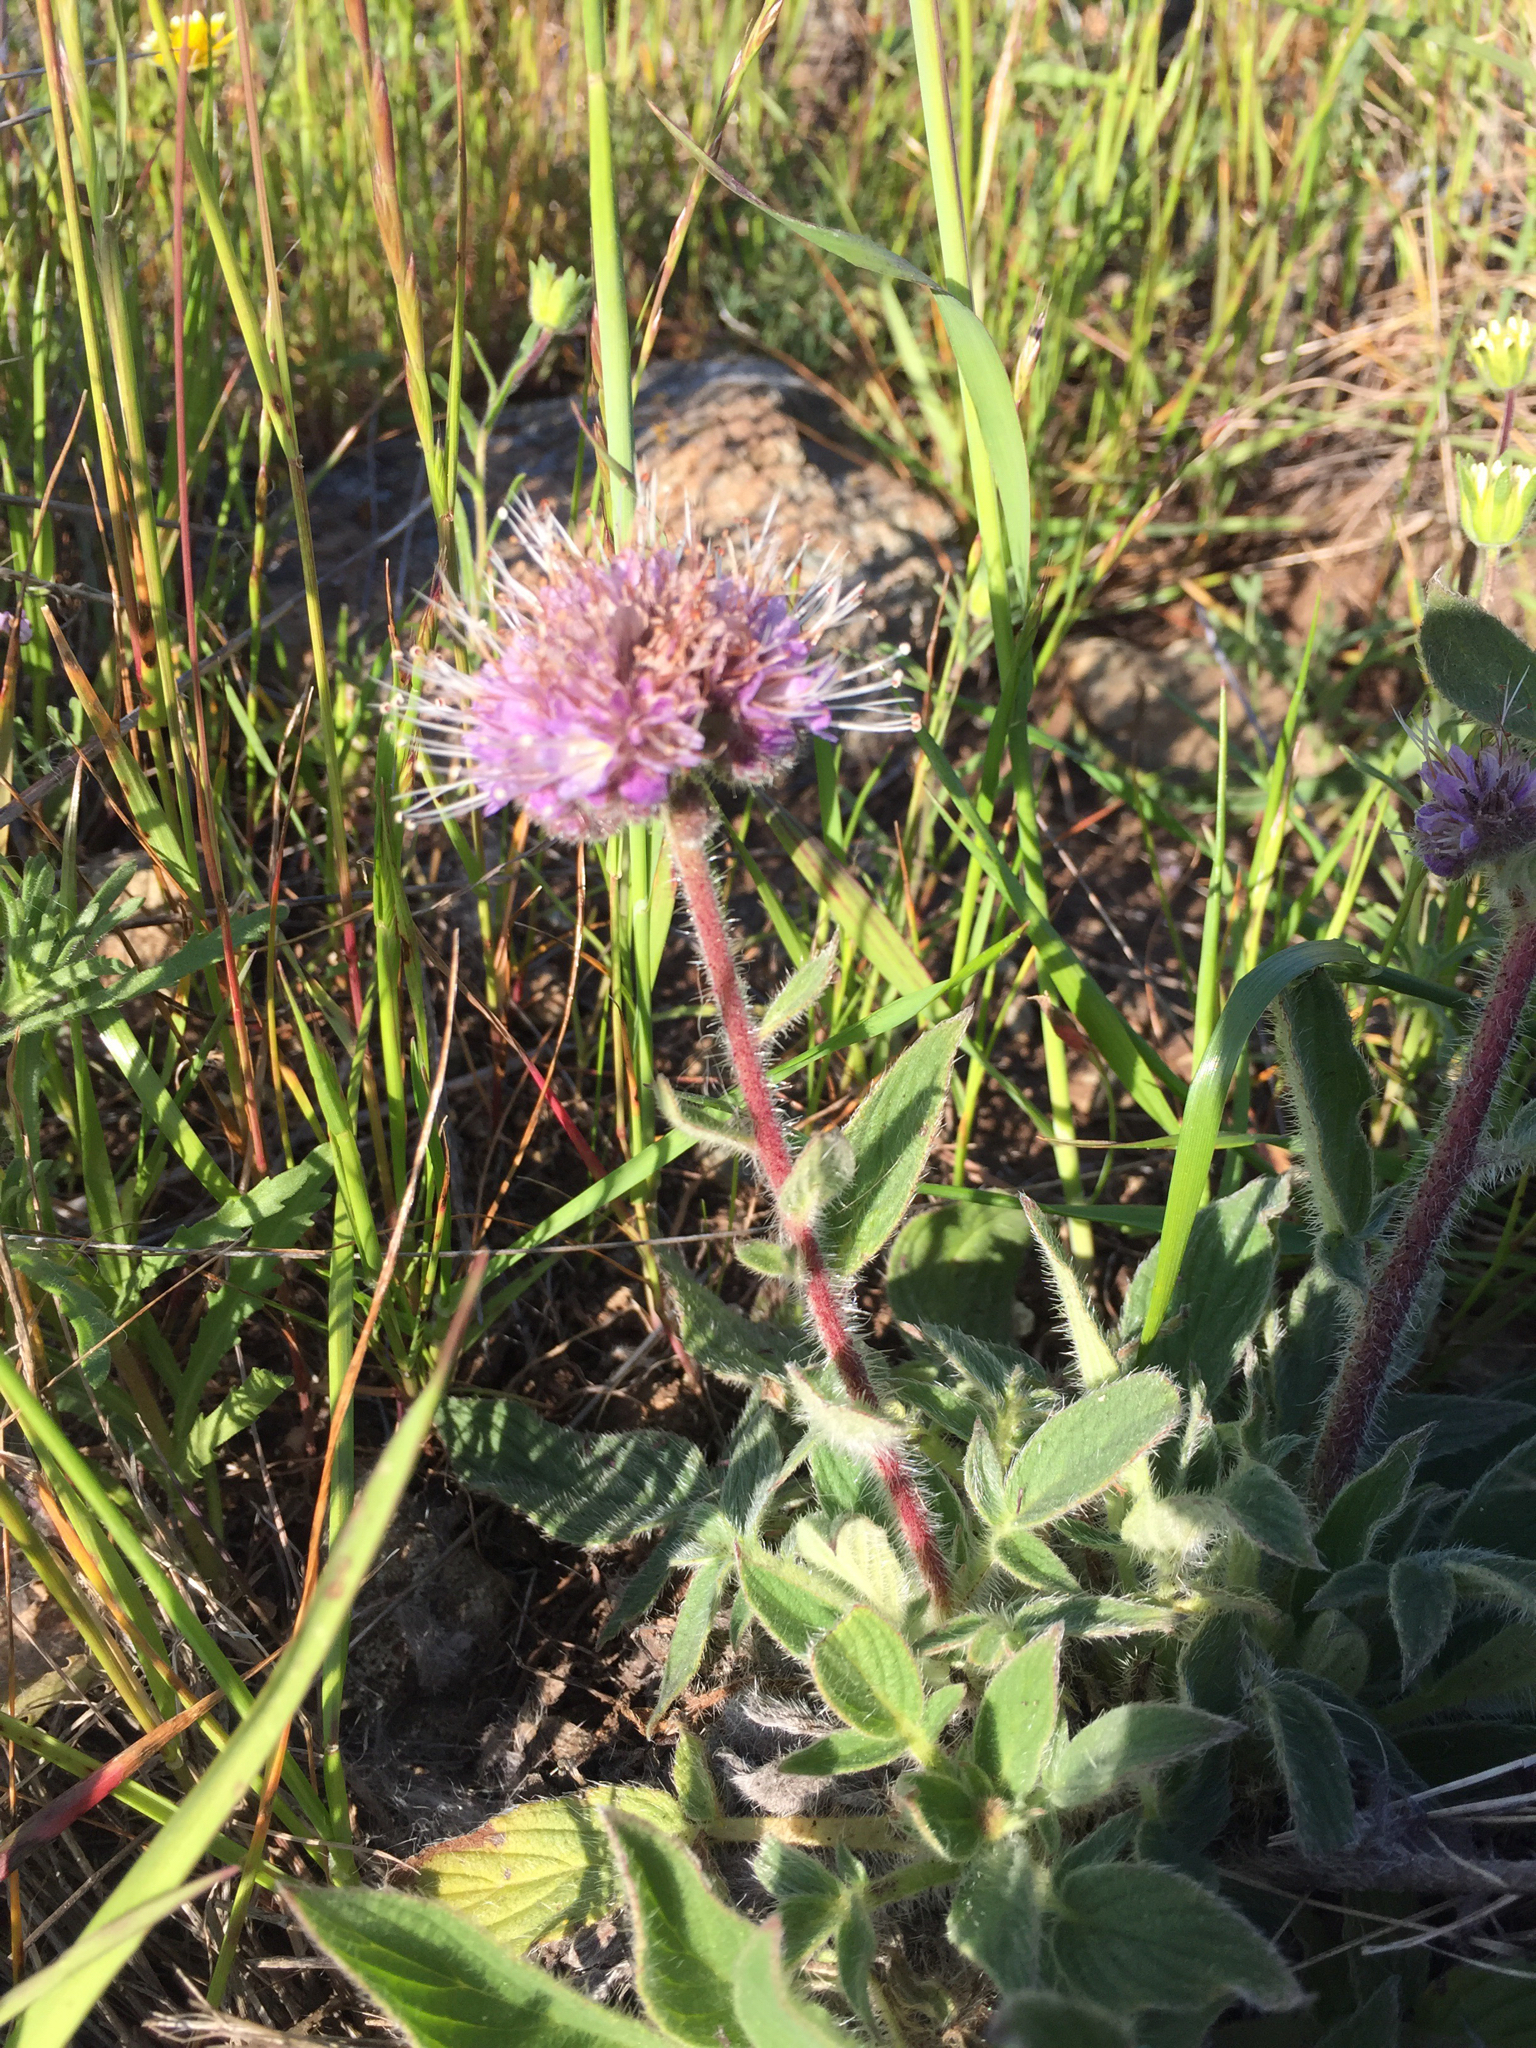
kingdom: Plantae
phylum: Tracheophyta
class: Magnoliopsida
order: Boraginales
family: Hydrophyllaceae
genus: Phacelia
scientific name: Phacelia californica
